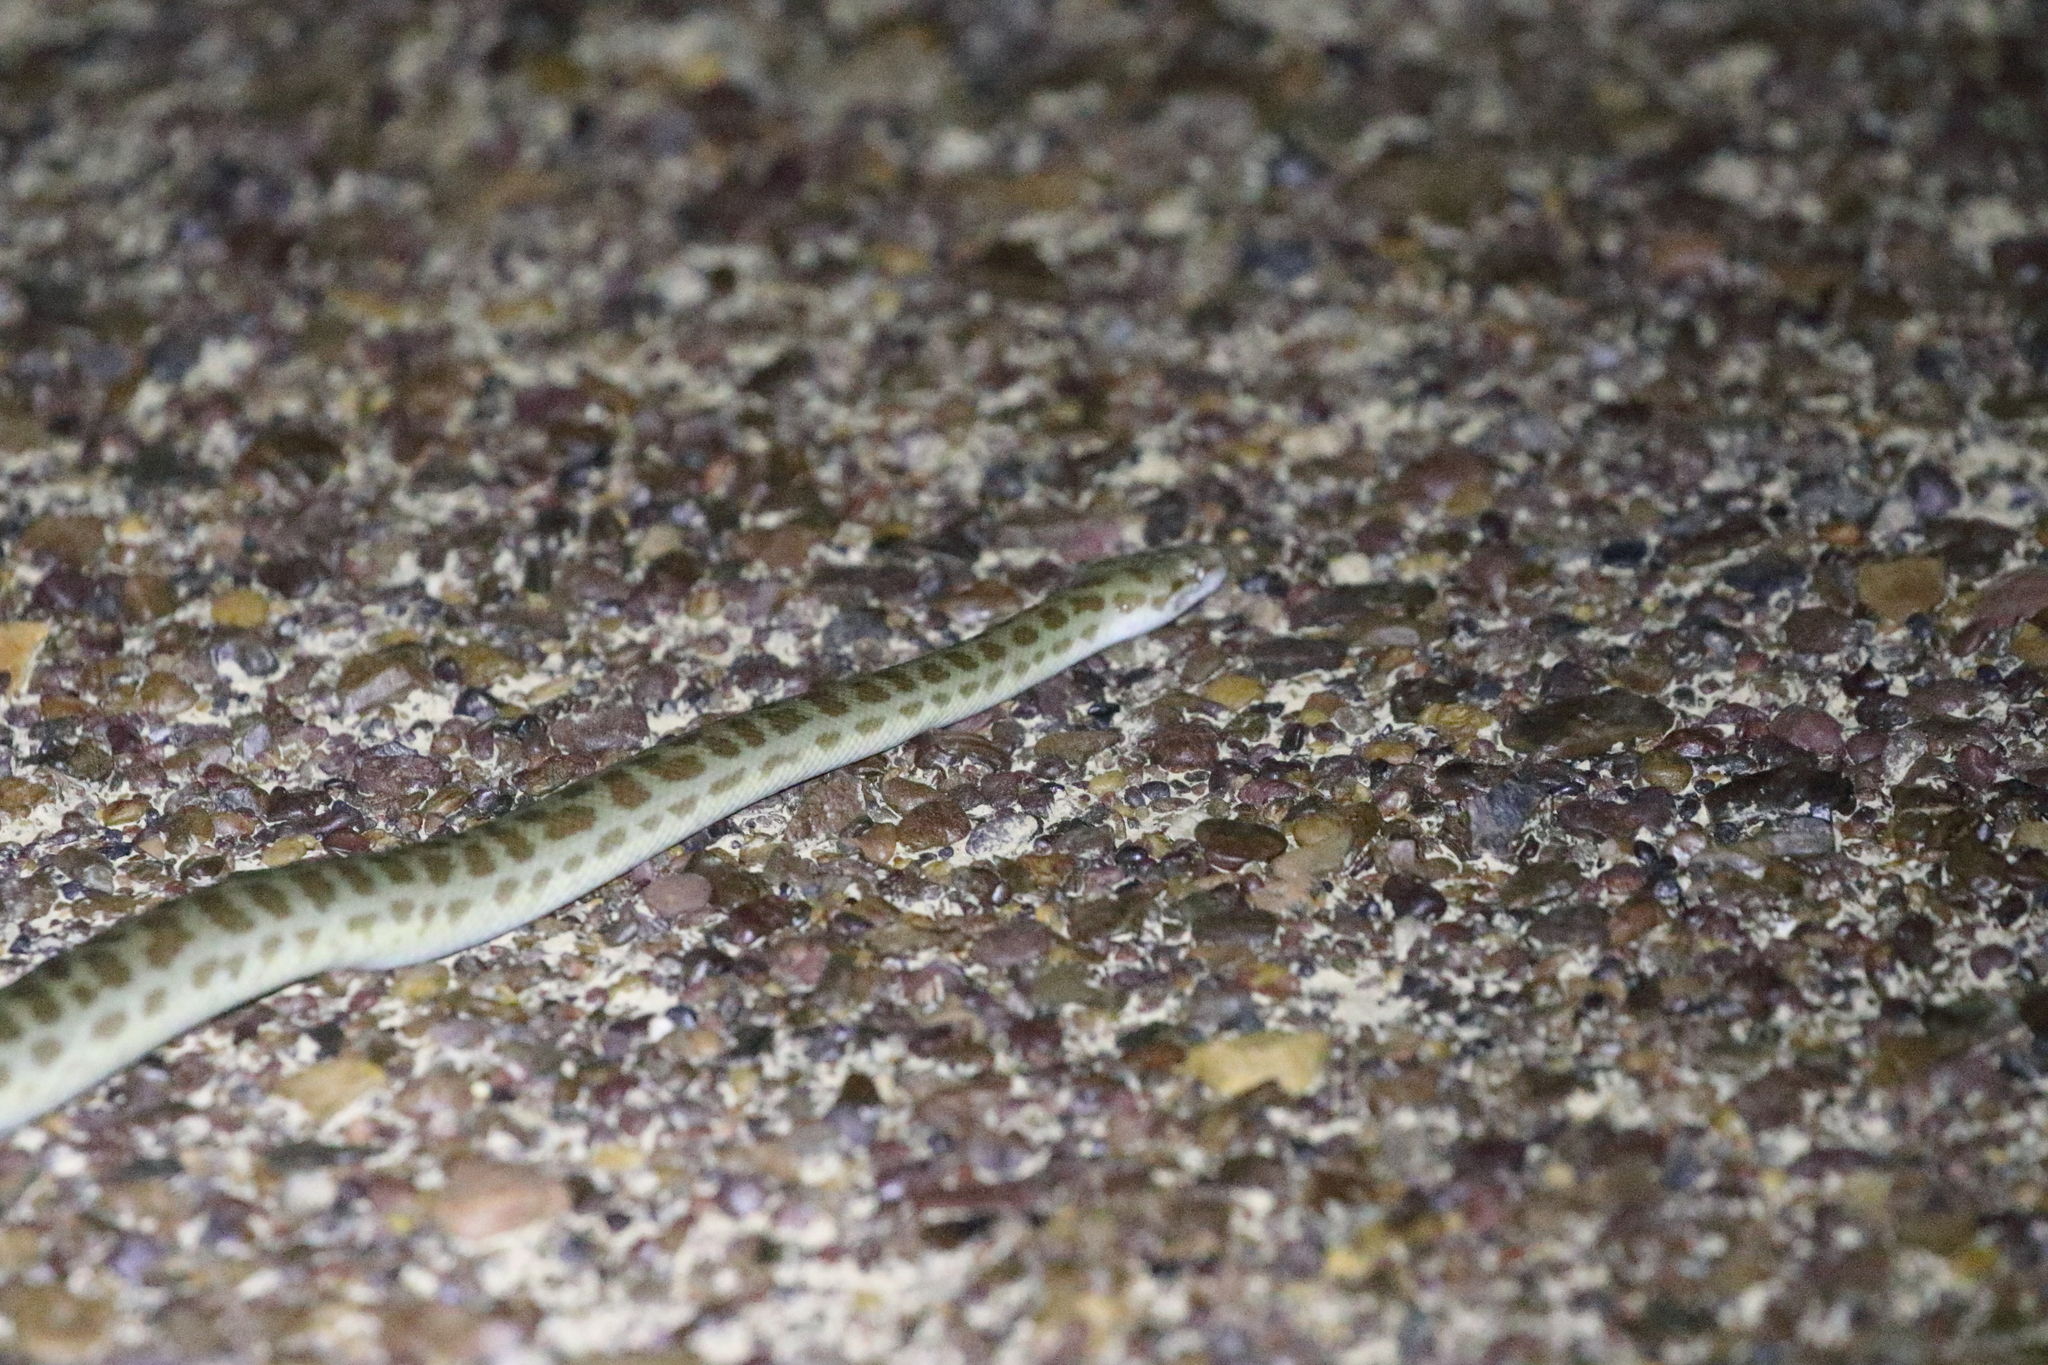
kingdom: Animalia
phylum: Chordata
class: Squamata
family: Pythonidae
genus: Antaresia
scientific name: Antaresia childreni
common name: Children's python
